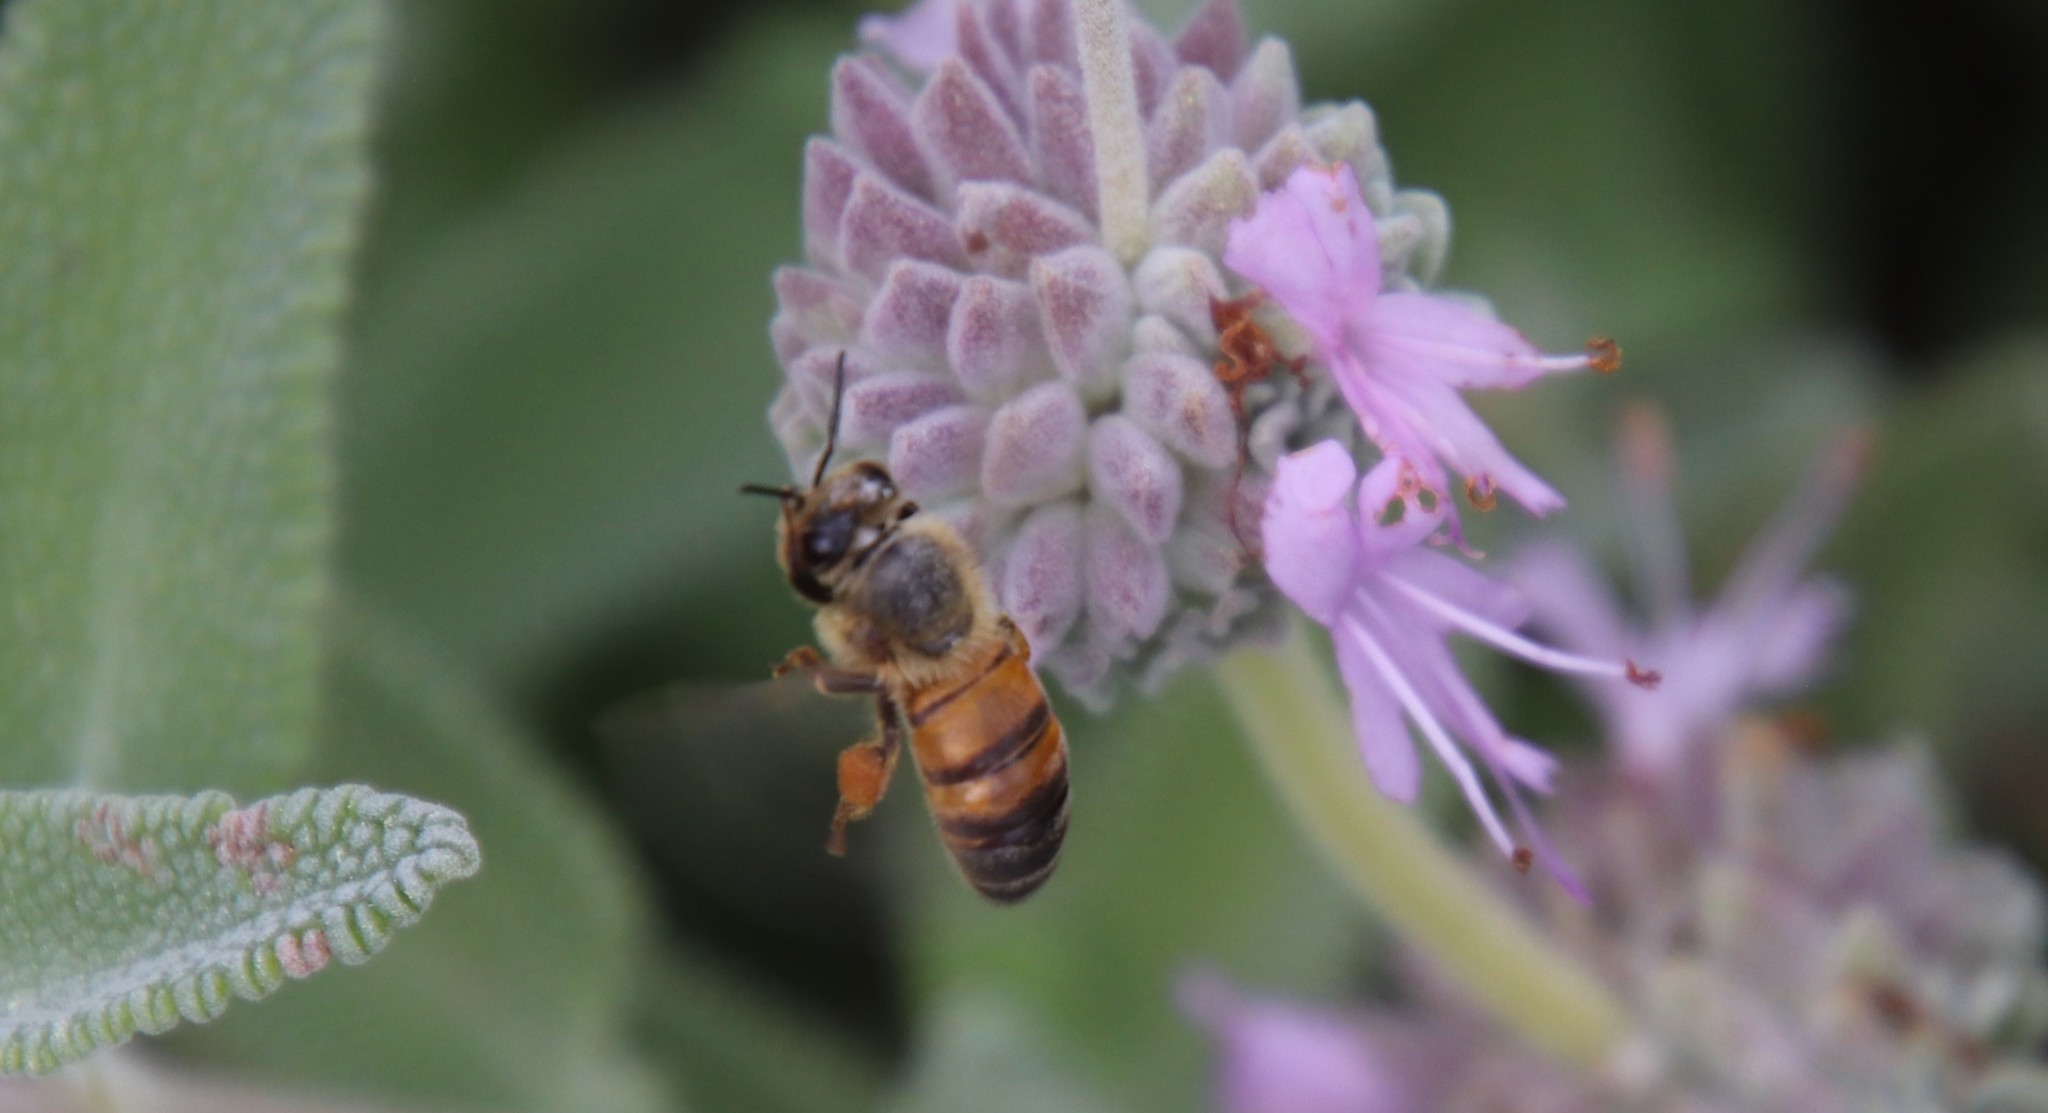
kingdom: Animalia
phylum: Arthropoda
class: Insecta
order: Hymenoptera
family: Apidae
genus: Apis
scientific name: Apis mellifera
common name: Honey bee
